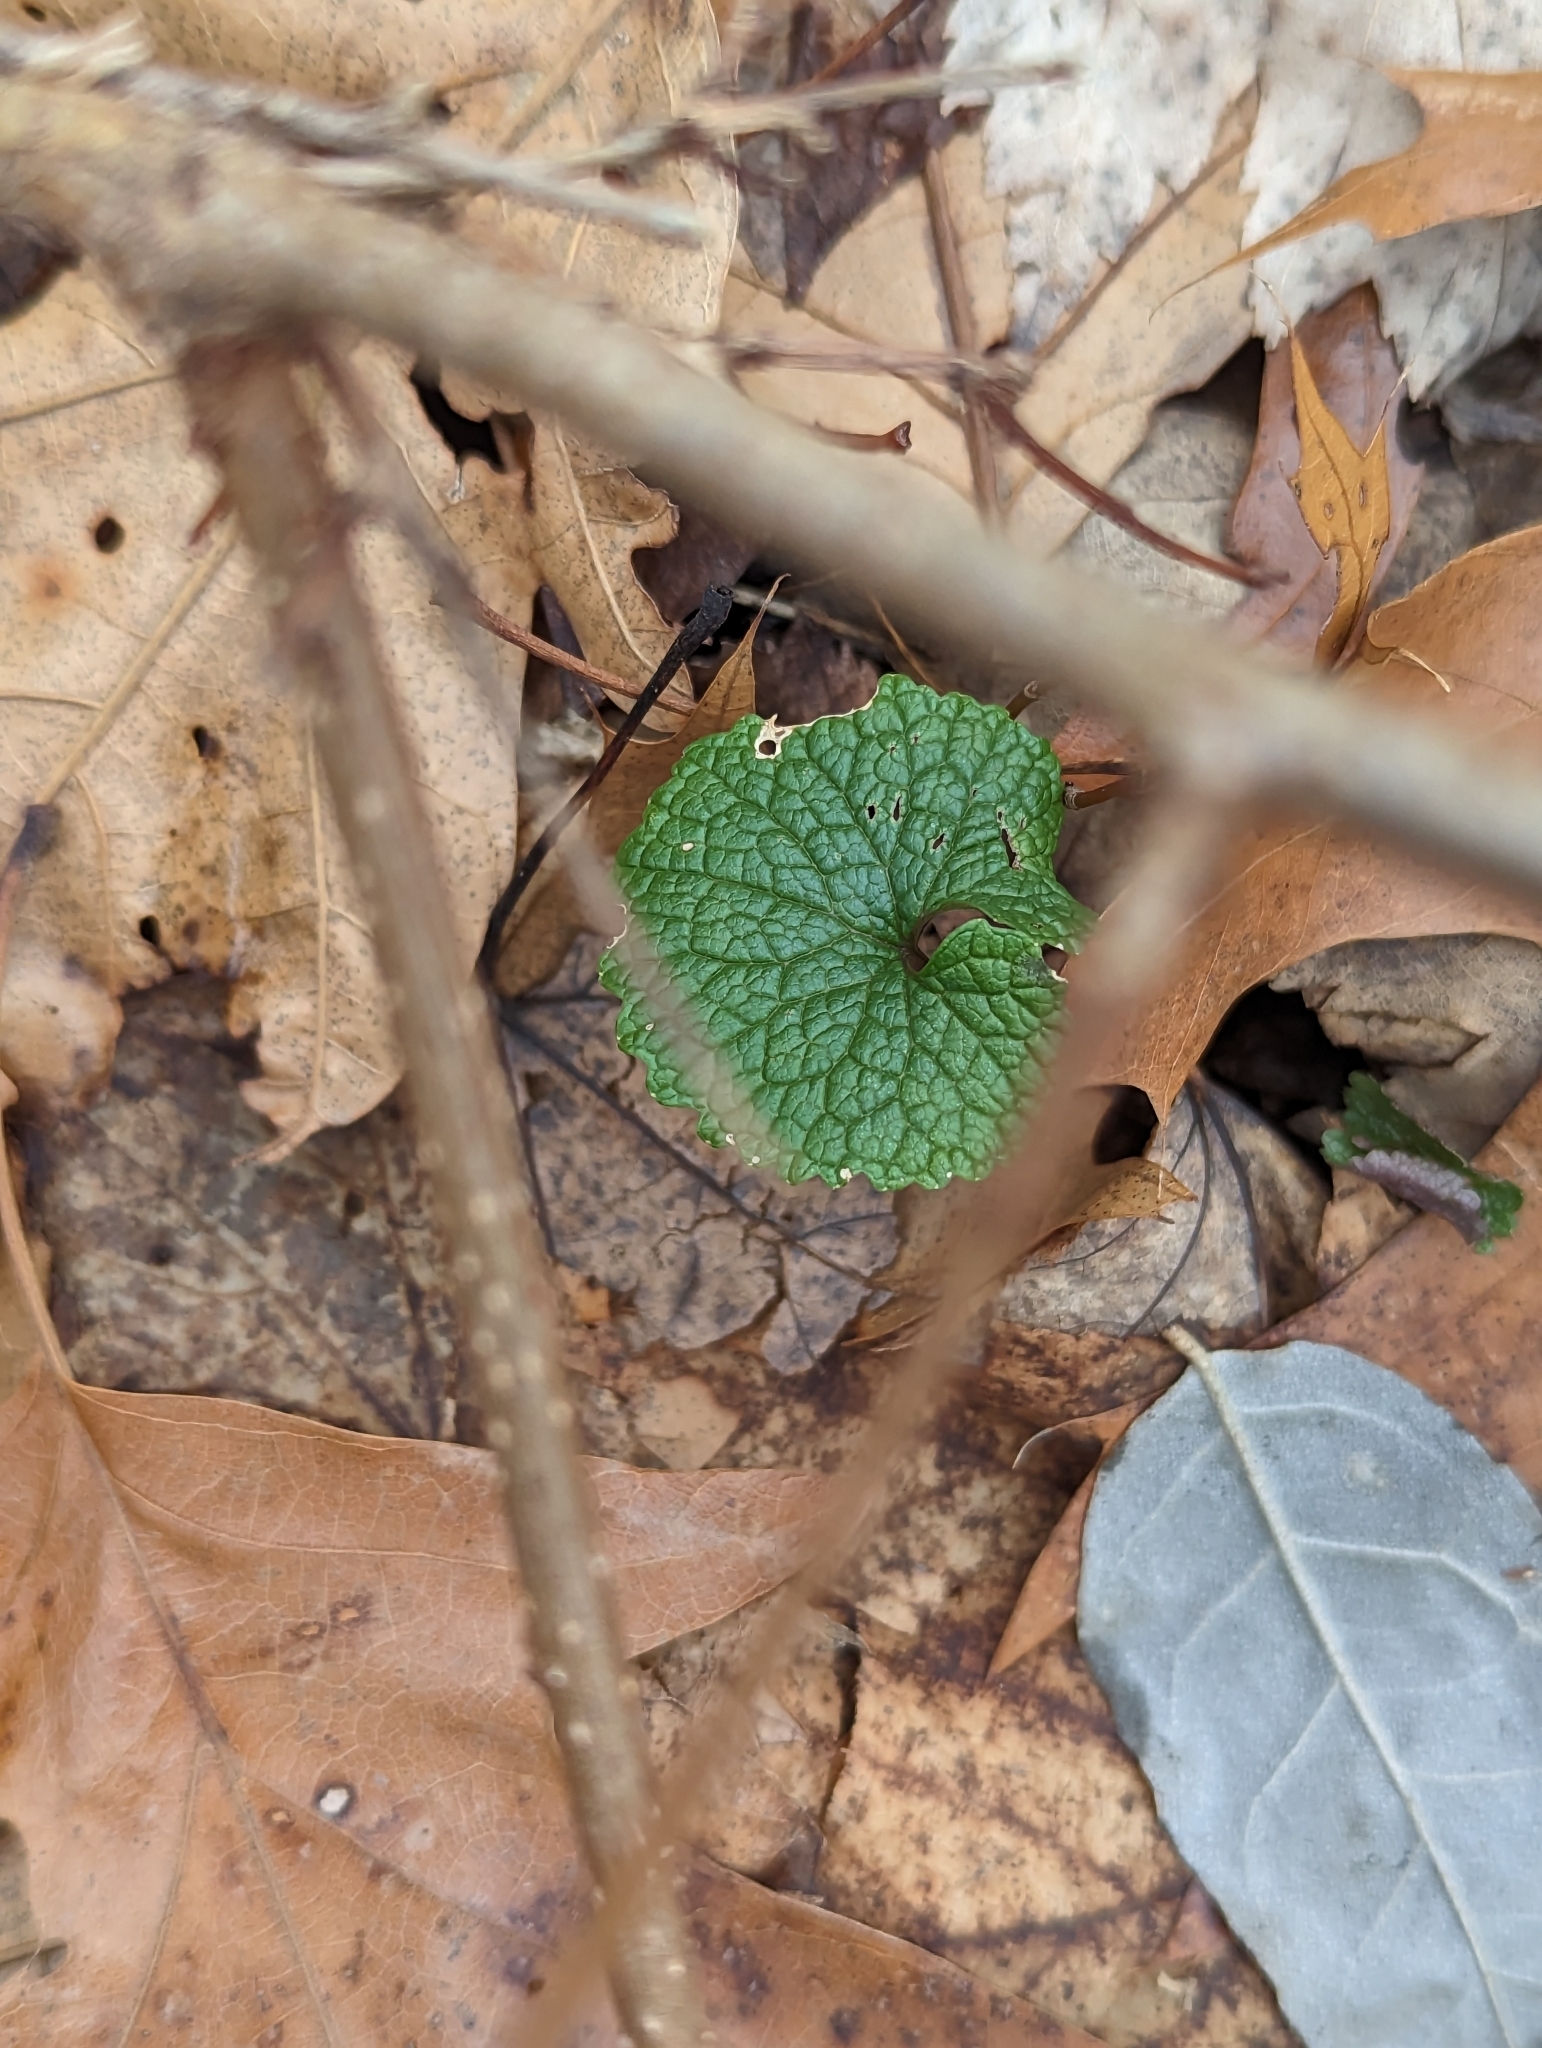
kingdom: Plantae
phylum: Tracheophyta
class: Magnoliopsida
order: Brassicales
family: Brassicaceae
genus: Alliaria
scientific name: Alliaria petiolata
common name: Garlic mustard
